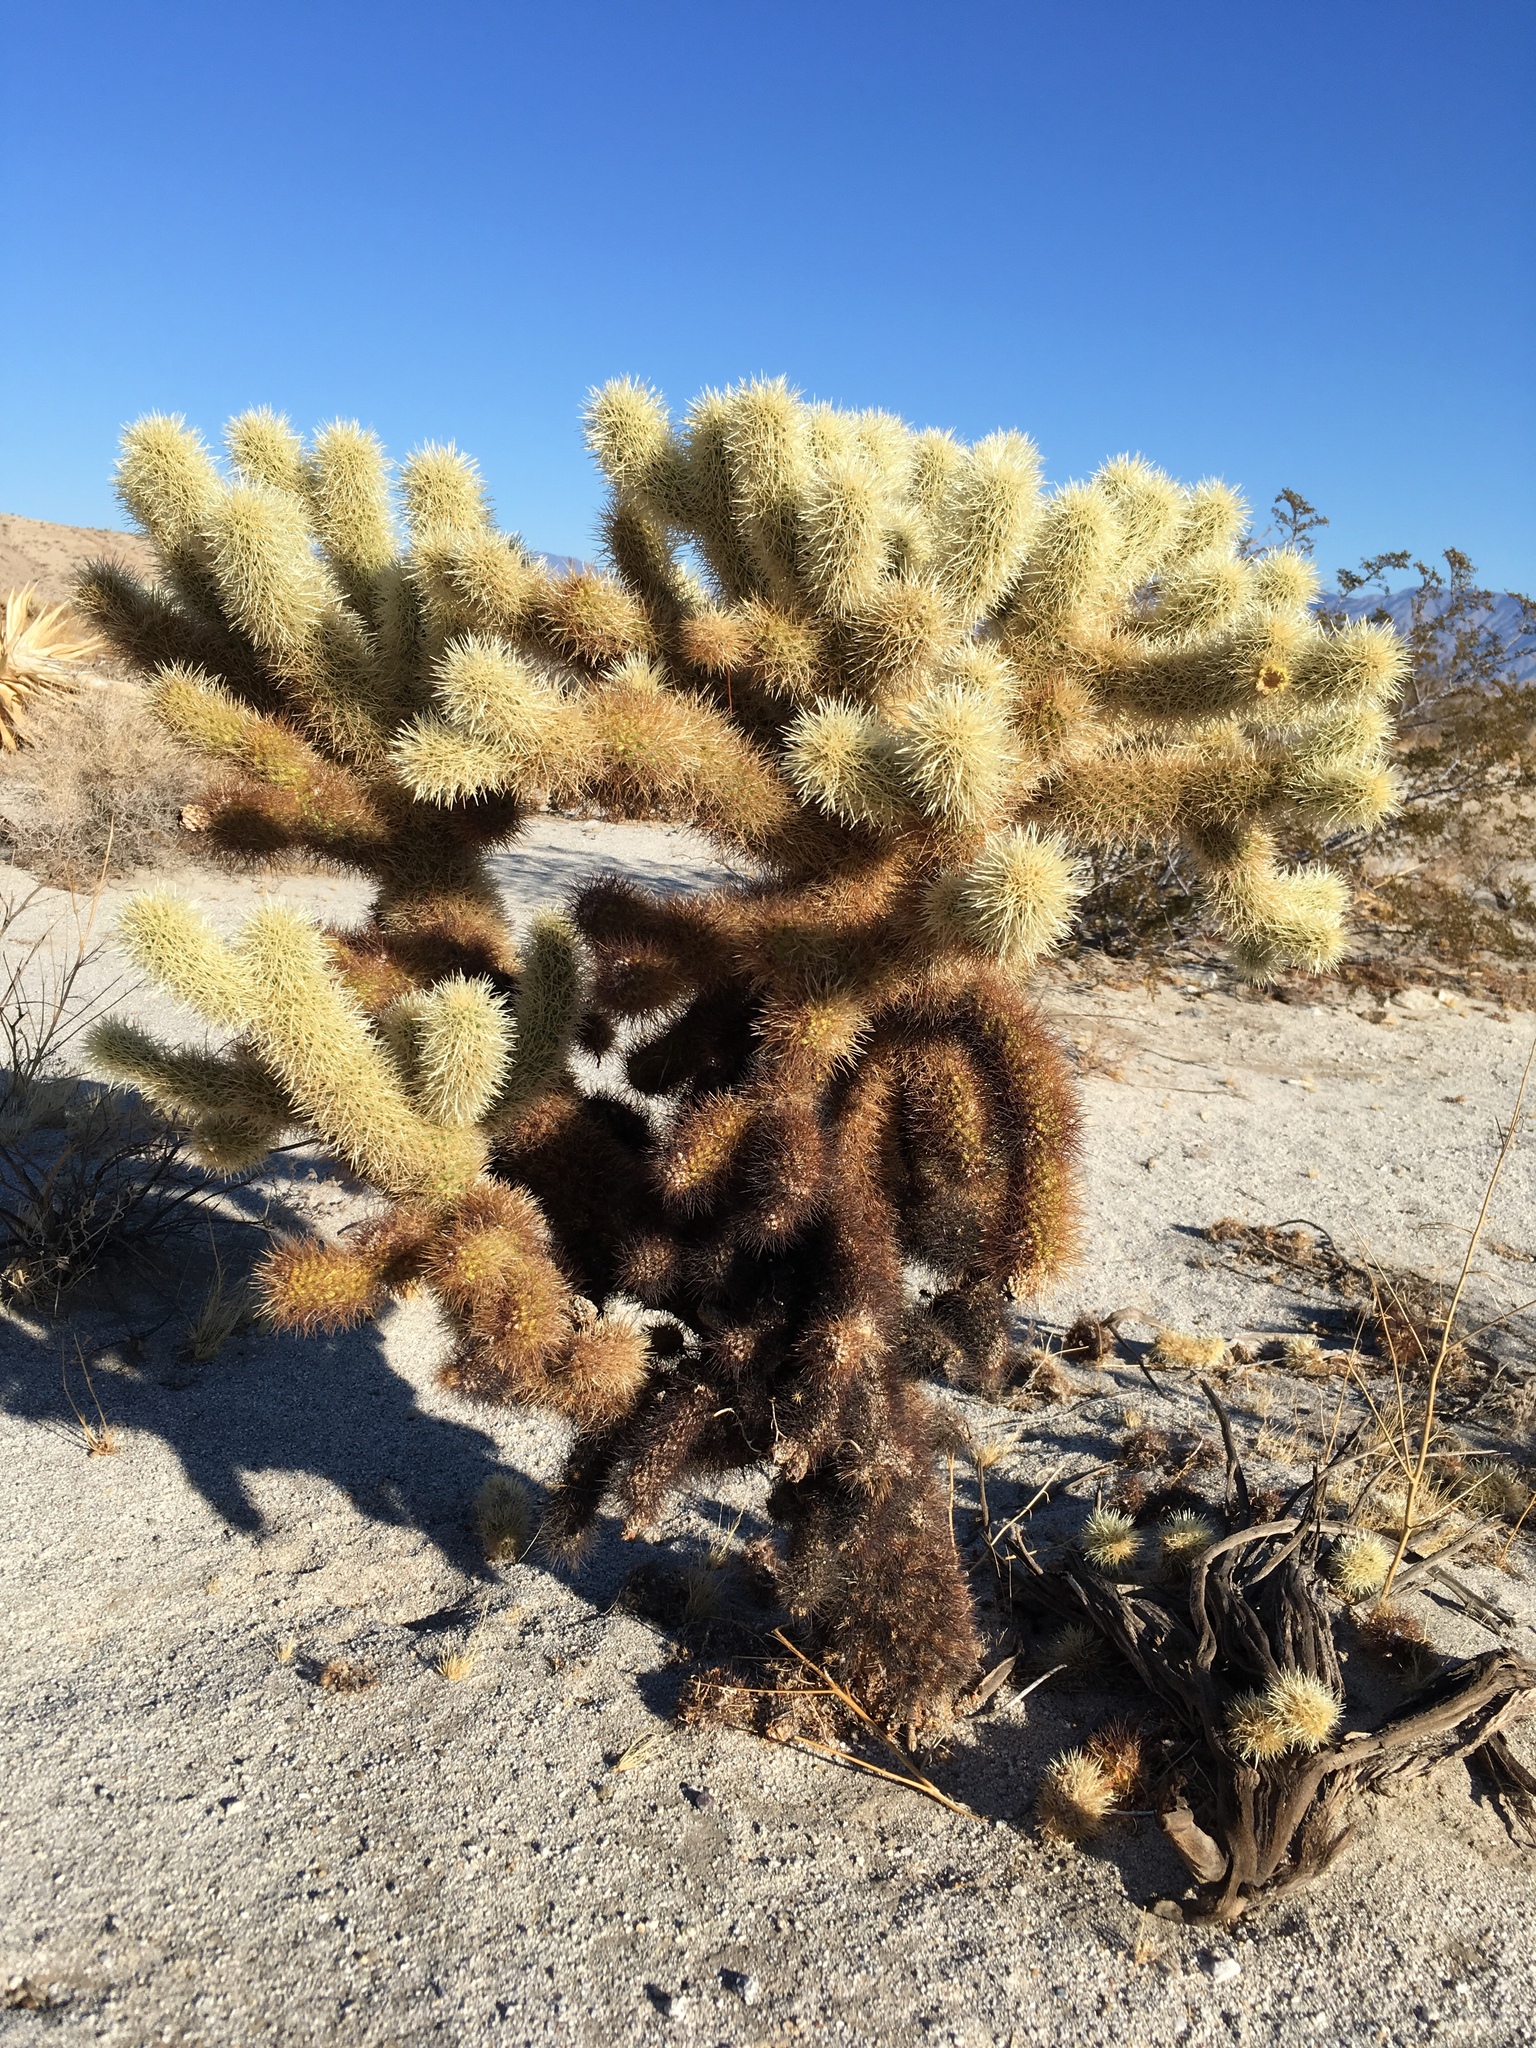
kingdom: Plantae
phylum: Tracheophyta
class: Magnoliopsida
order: Caryophyllales
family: Cactaceae
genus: Cylindropuntia
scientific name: Cylindropuntia fosbergii
